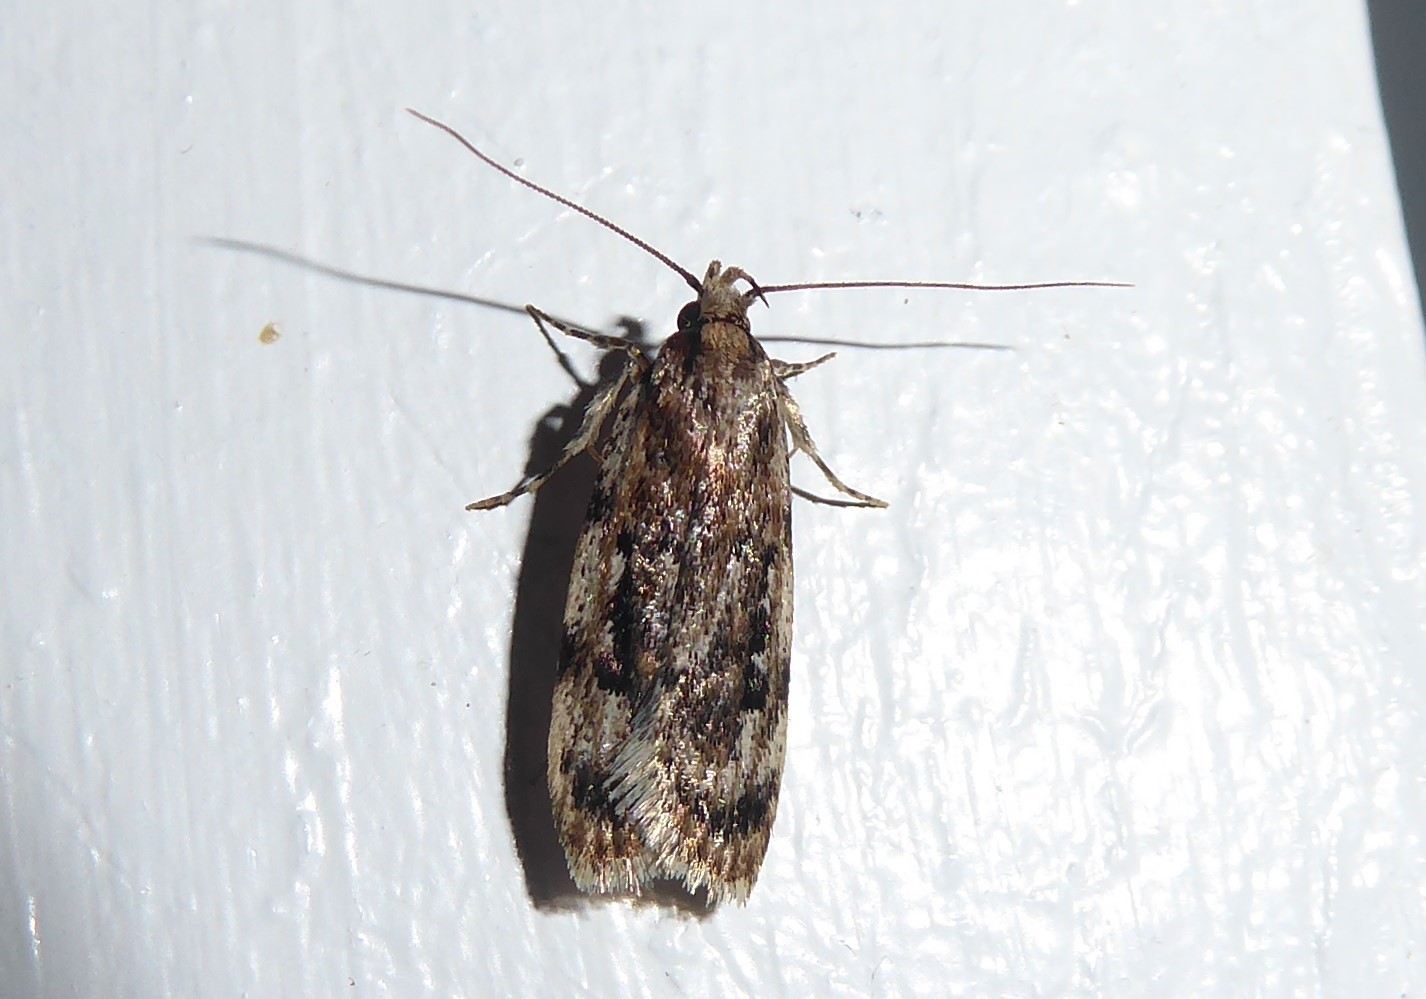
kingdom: Animalia
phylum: Arthropoda
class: Insecta
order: Lepidoptera
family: Oecophoridae
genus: Barea
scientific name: Barea exarcha
